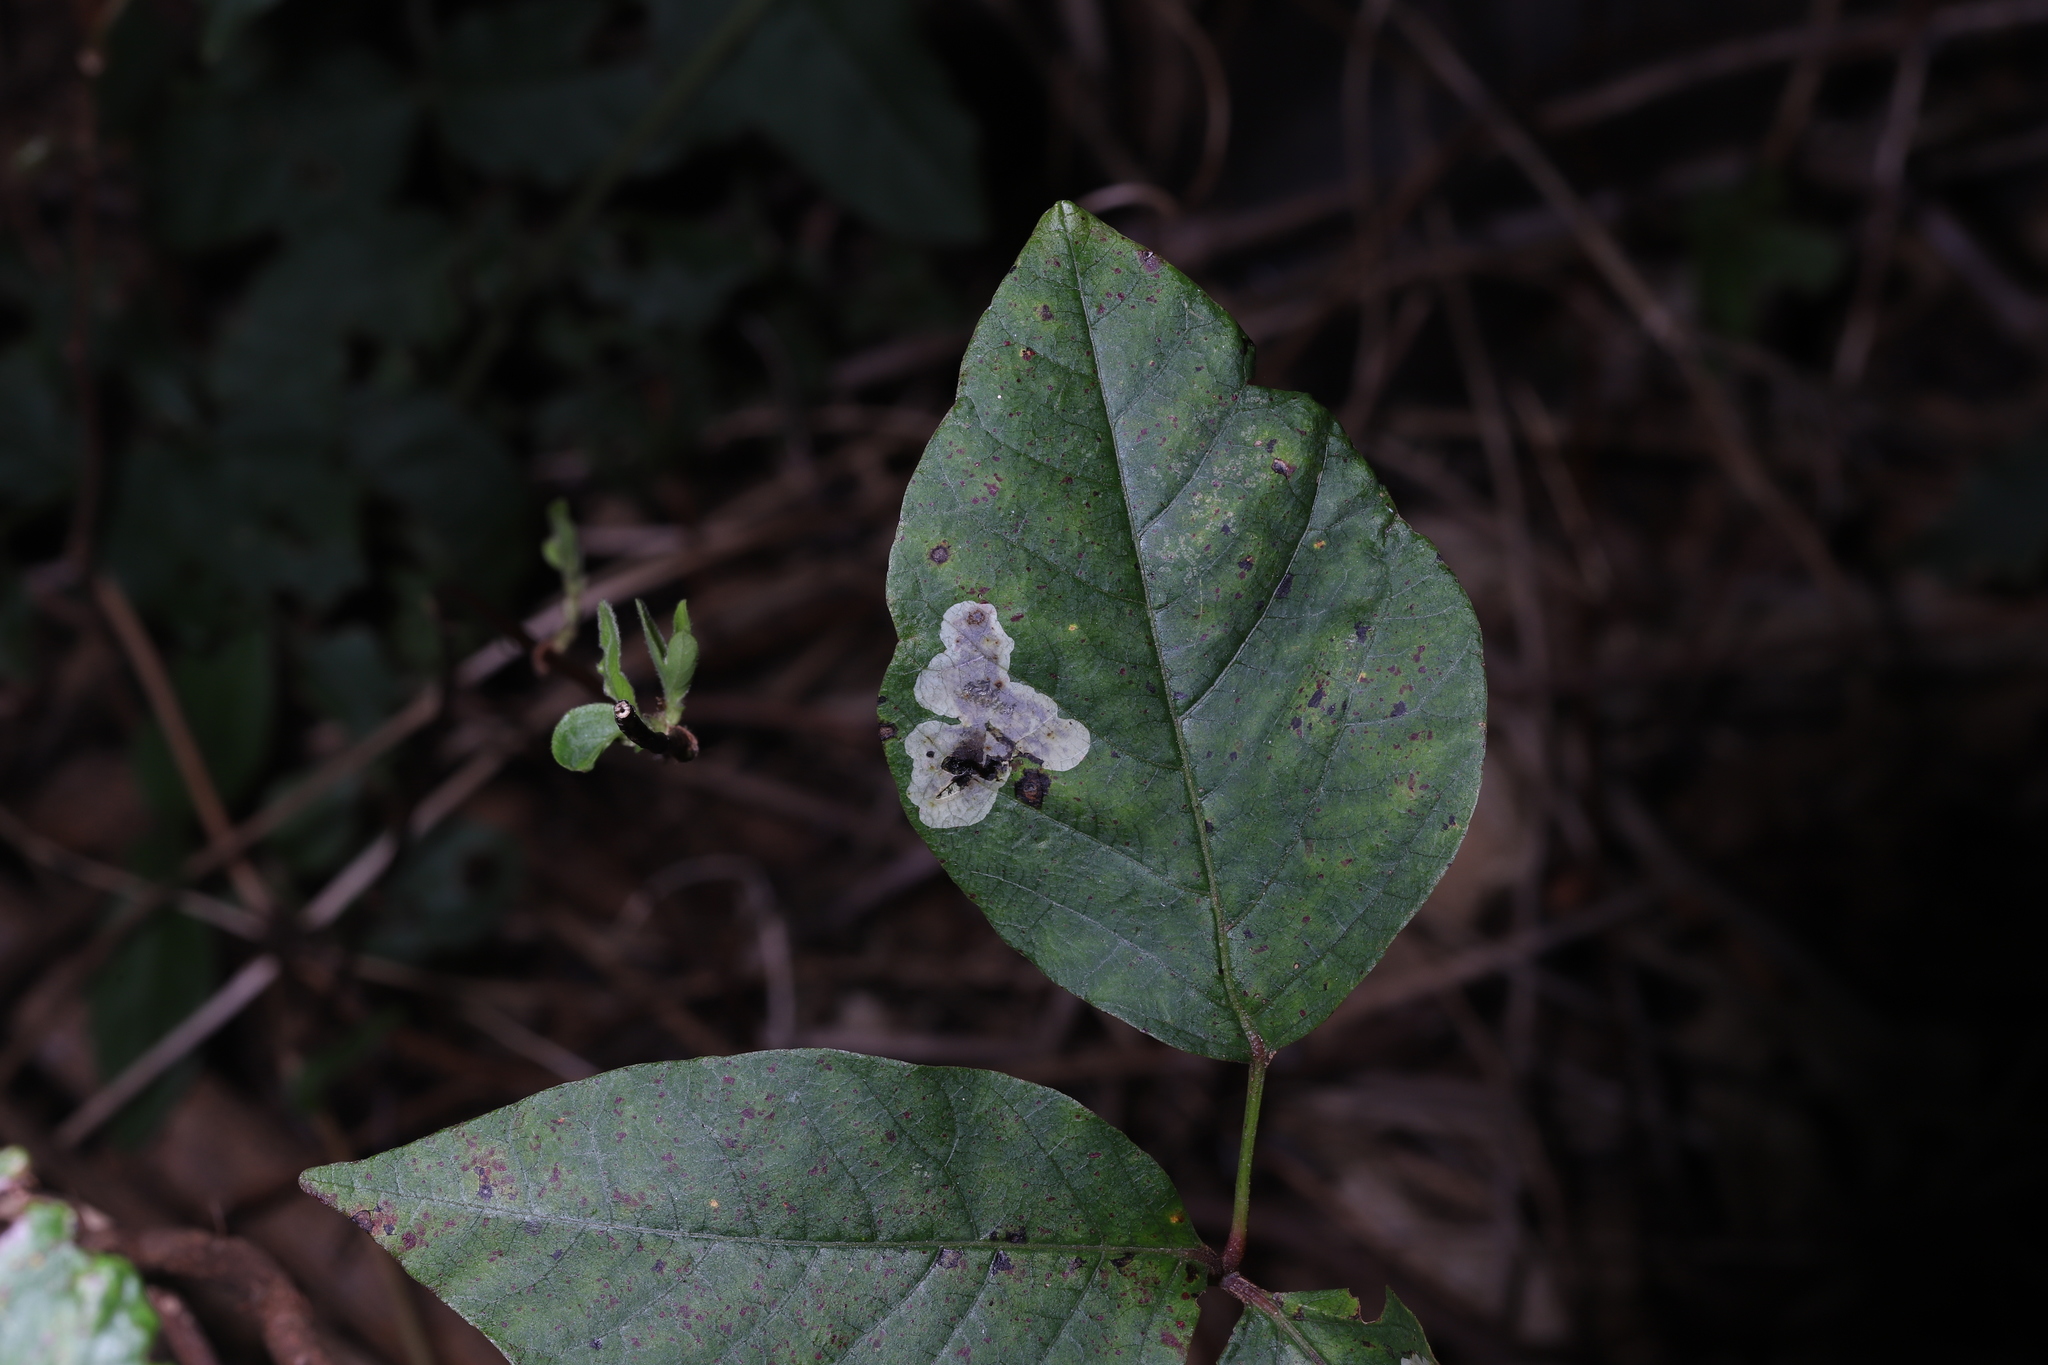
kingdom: Animalia
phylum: Arthropoda
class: Insecta
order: Lepidoptera
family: Gracillariidae
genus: Cameraria
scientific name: Cameraria guttifinitella
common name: Poison ivy leaf-miner moth
